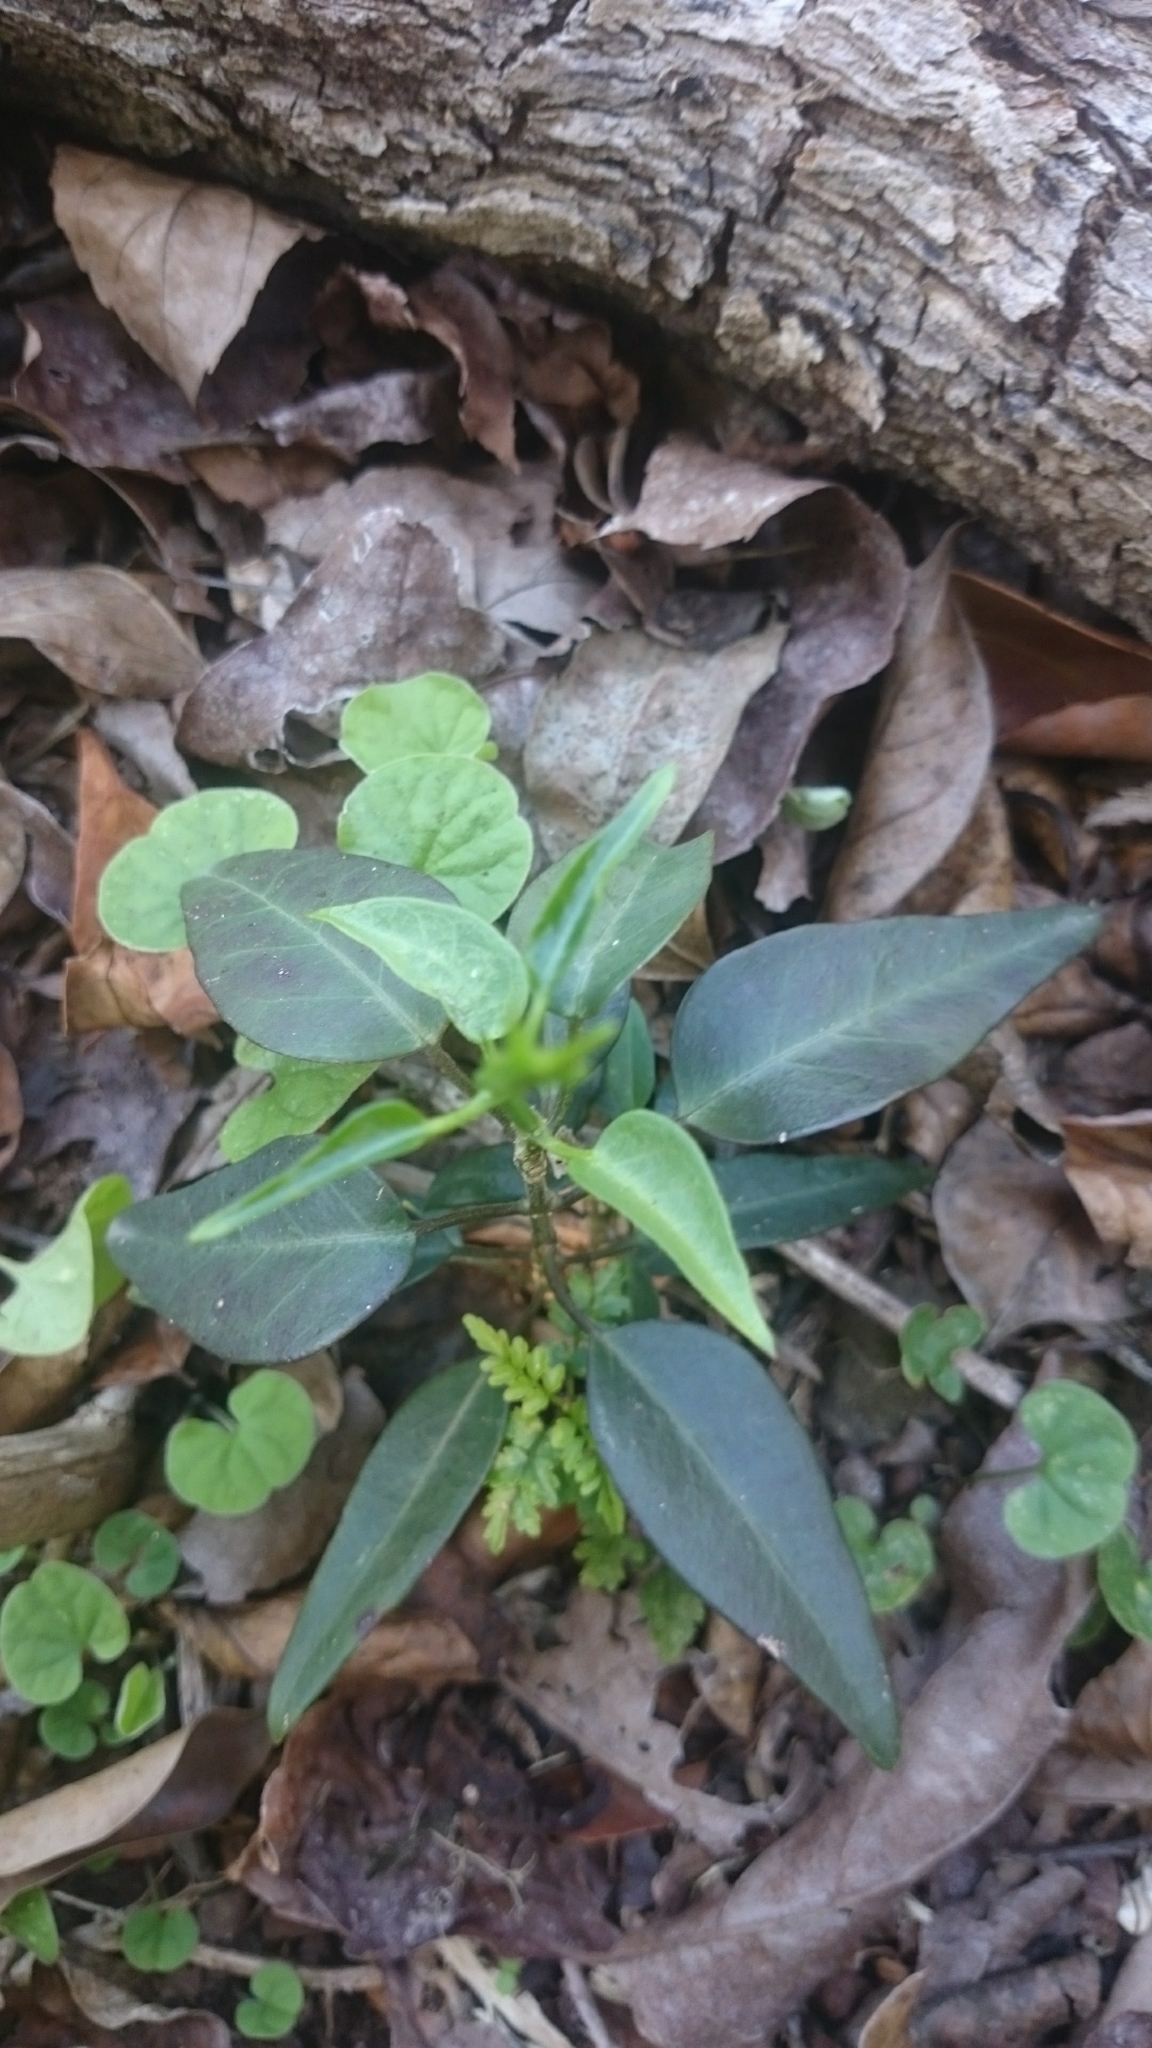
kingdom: Plantae
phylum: Tracheophyta
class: Magnoliopsida
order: Gentianales
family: Apocynaceae
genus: Vincetoxicum
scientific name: Vincetoxicum elegans
